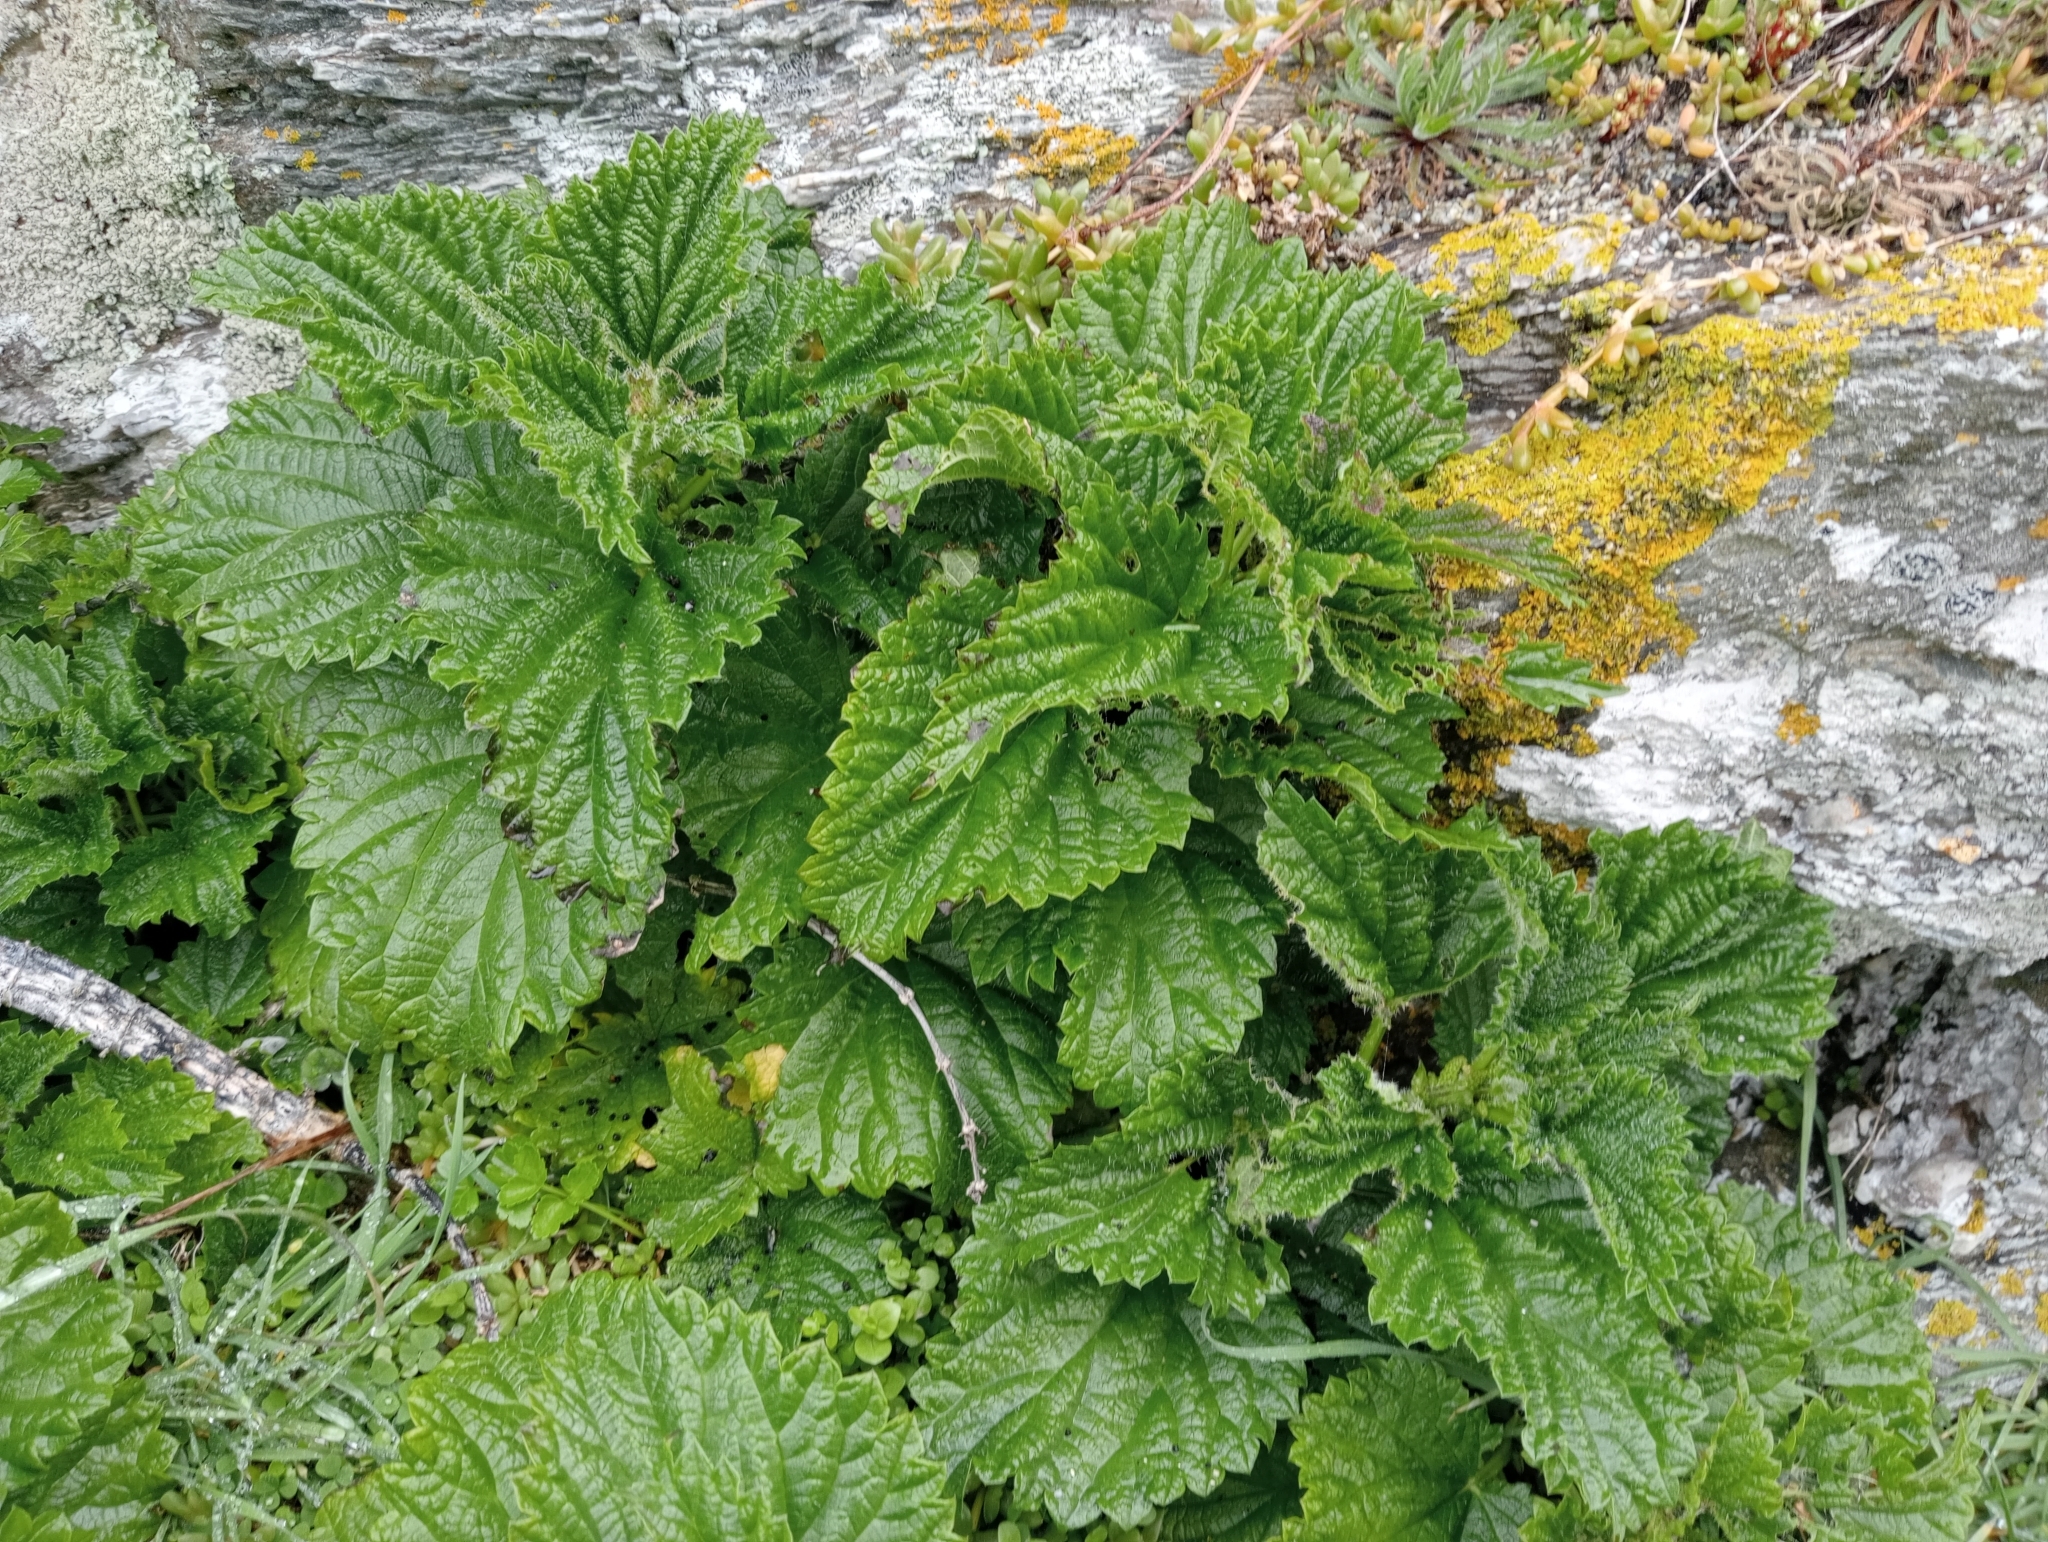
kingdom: Plantae
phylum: Tracheophyta
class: Magnoliopsida
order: Rosales
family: Urticaceae
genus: Urtica
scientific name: Urtica australis
